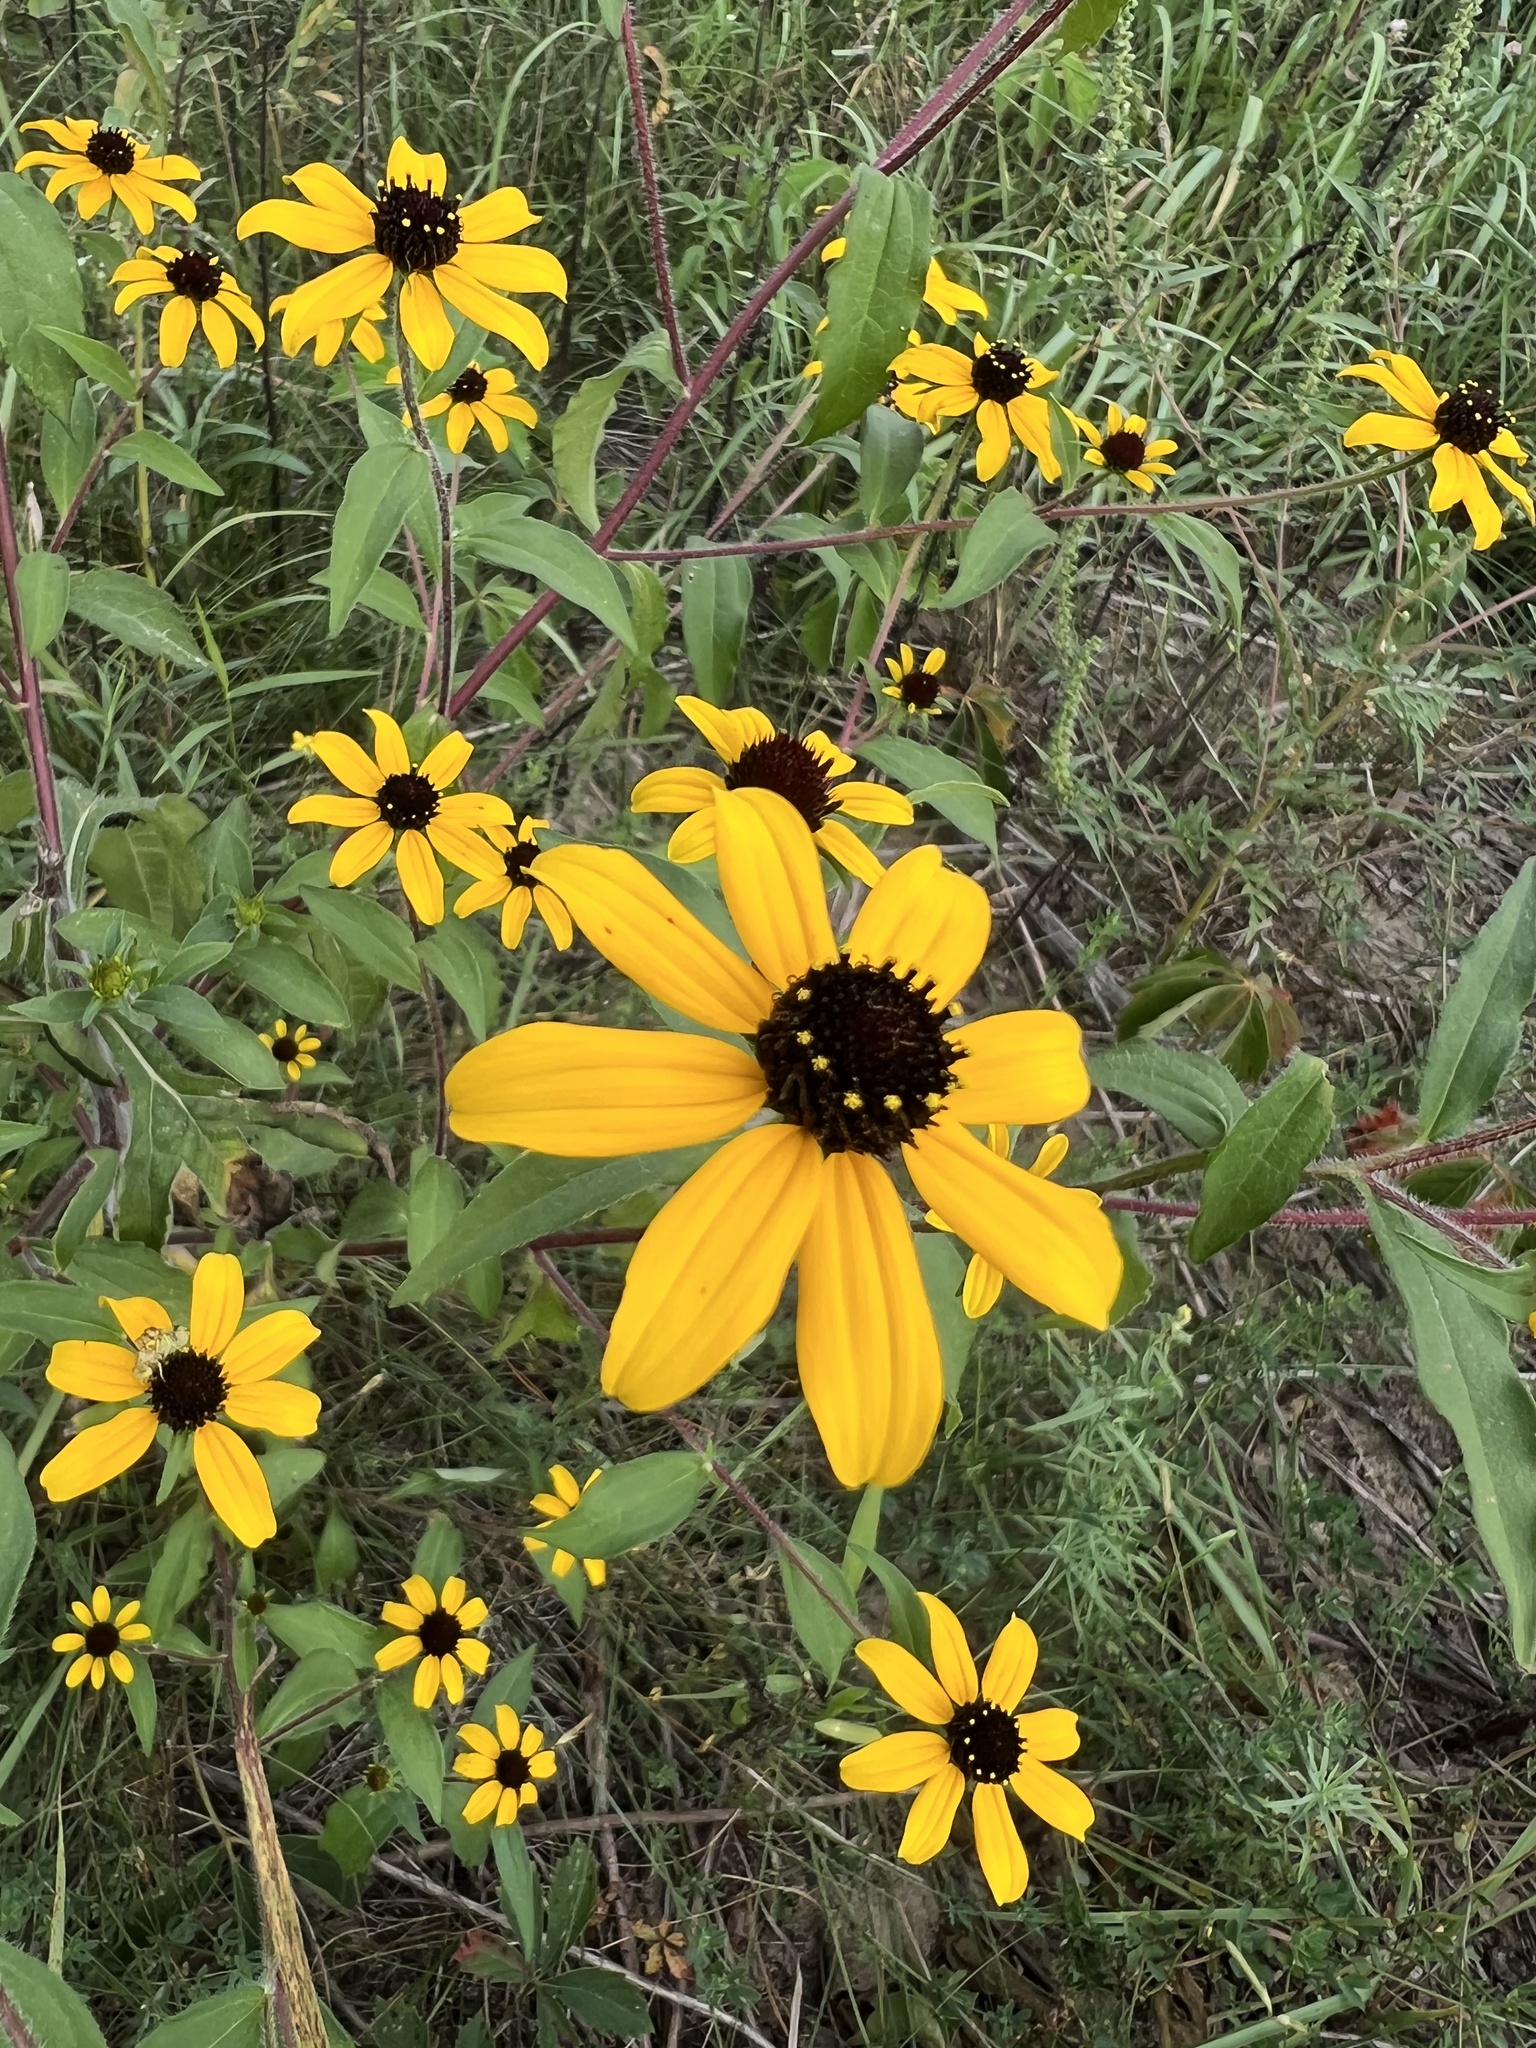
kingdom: Plantae
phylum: Tracheophyta
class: Magnoliopsida
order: Asterales
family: Asteraceae
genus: Rudbeckia
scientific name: Rudbeckia triloba
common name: Thin-leaved coneflower
